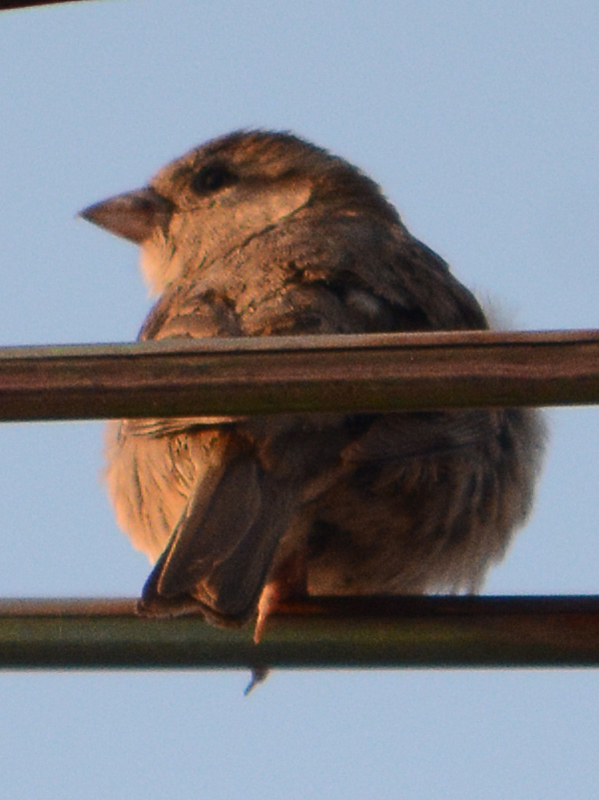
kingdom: Animalia
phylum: Chordata
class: Aves
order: Passeriformes
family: Passeridae
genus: Passer
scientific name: Passer domesticus
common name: House sparrow
